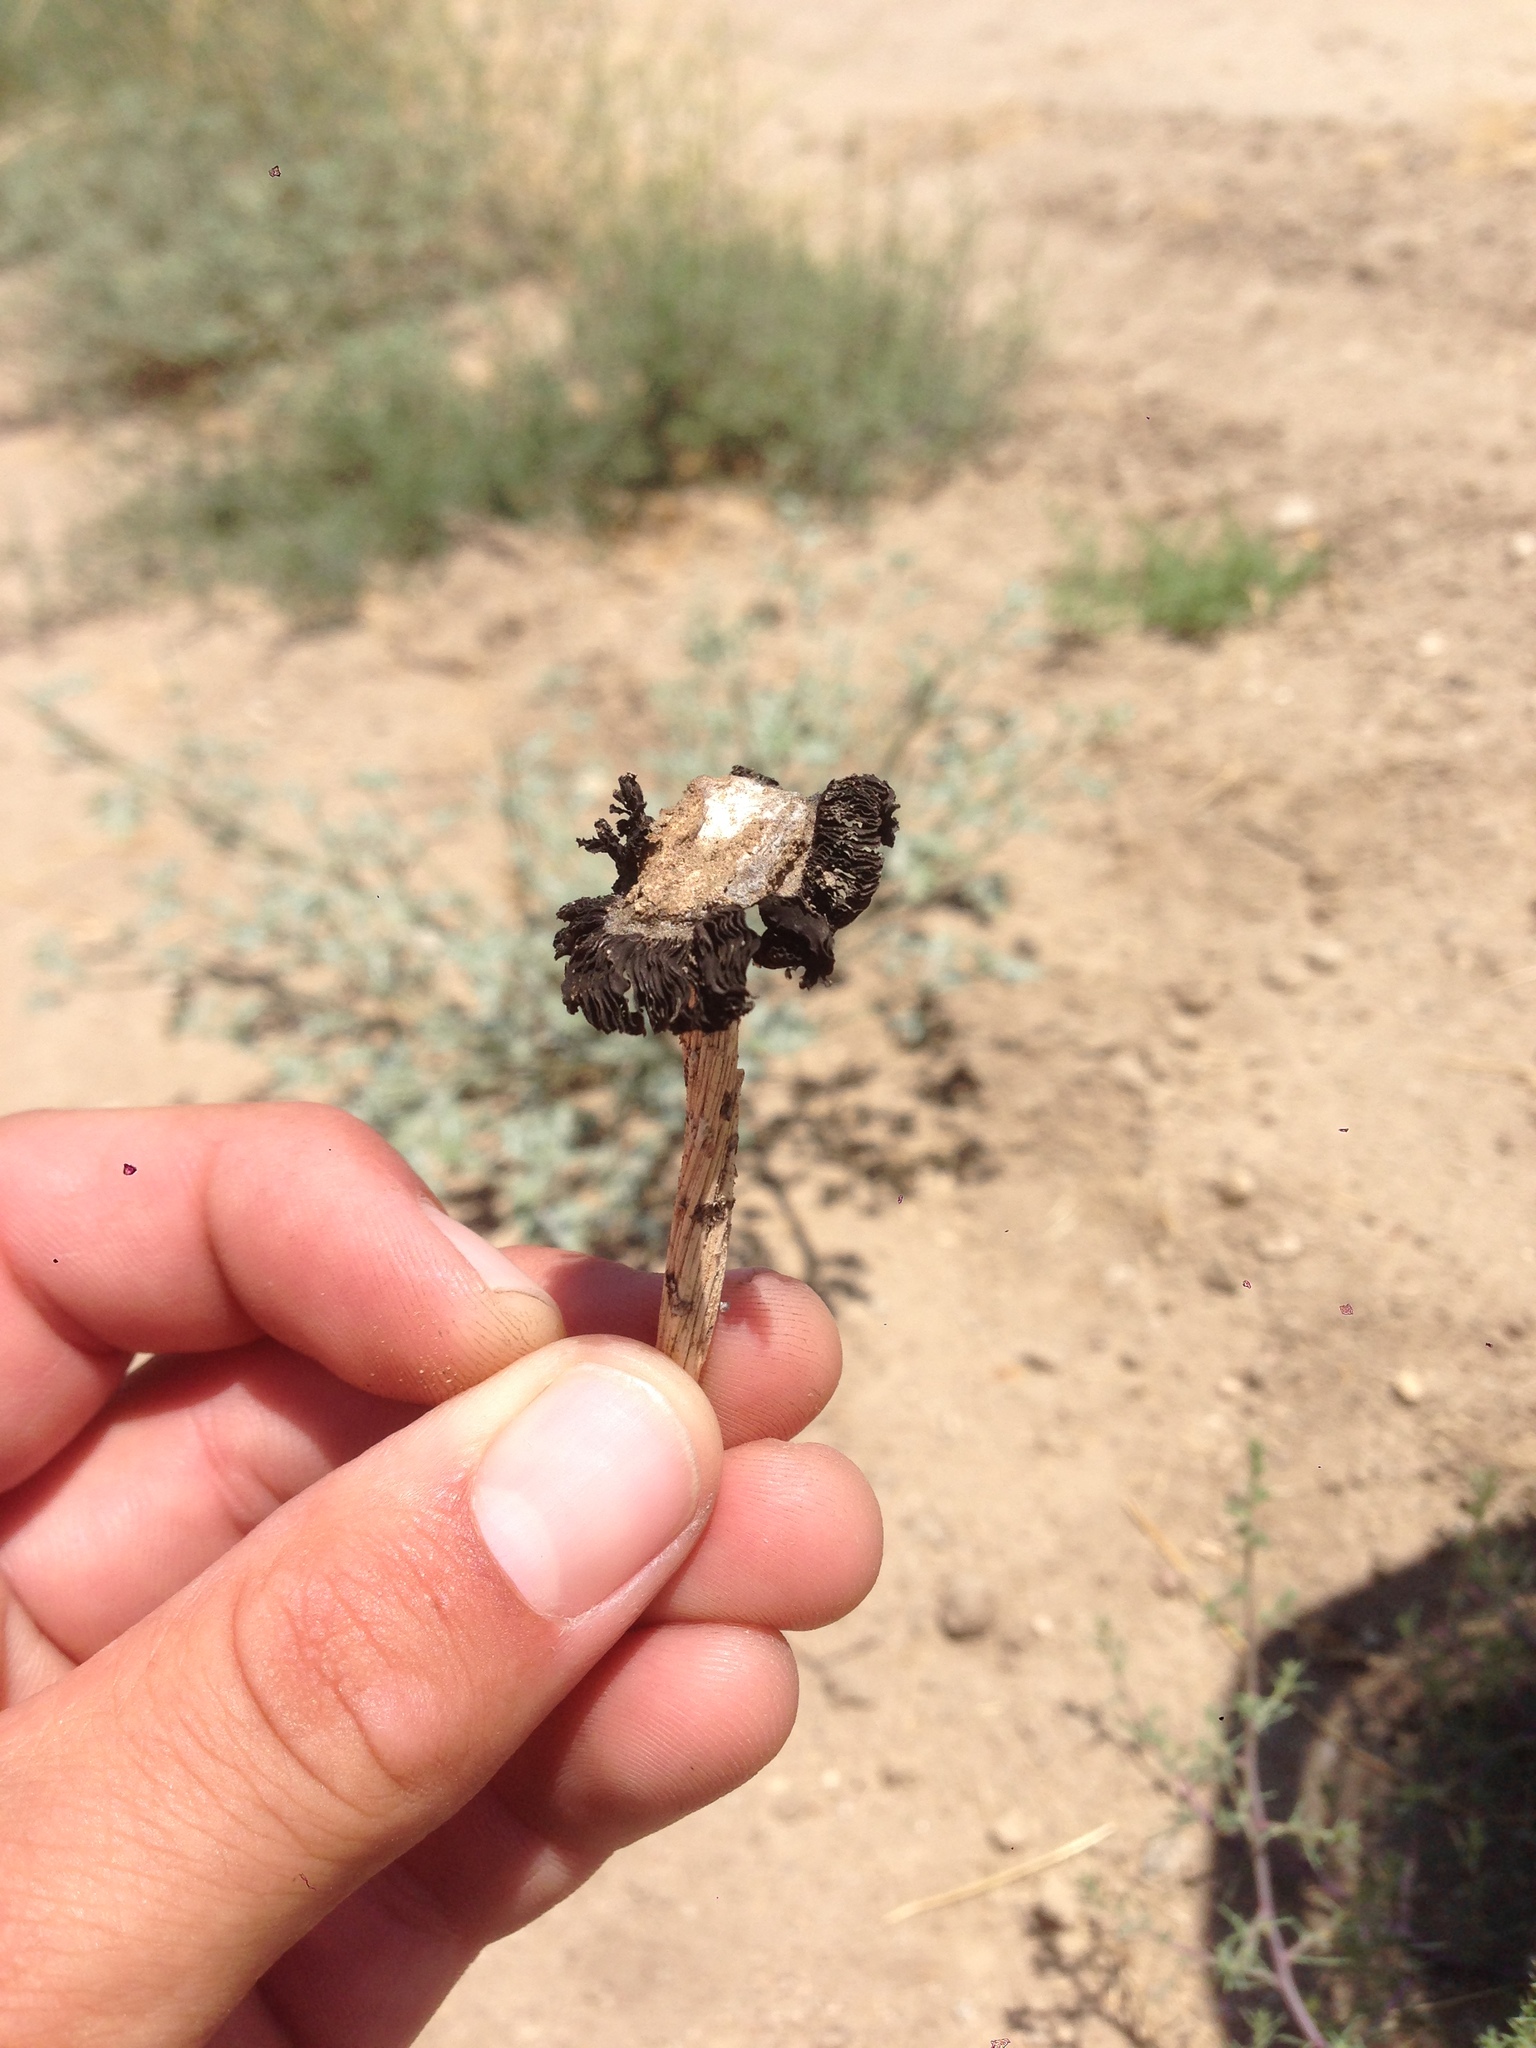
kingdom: Fungi
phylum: Basidiomycota
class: Agaricomycetes
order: Agaricales
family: Agaricaceae
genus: Montagnea
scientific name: Montagnea arenaria
